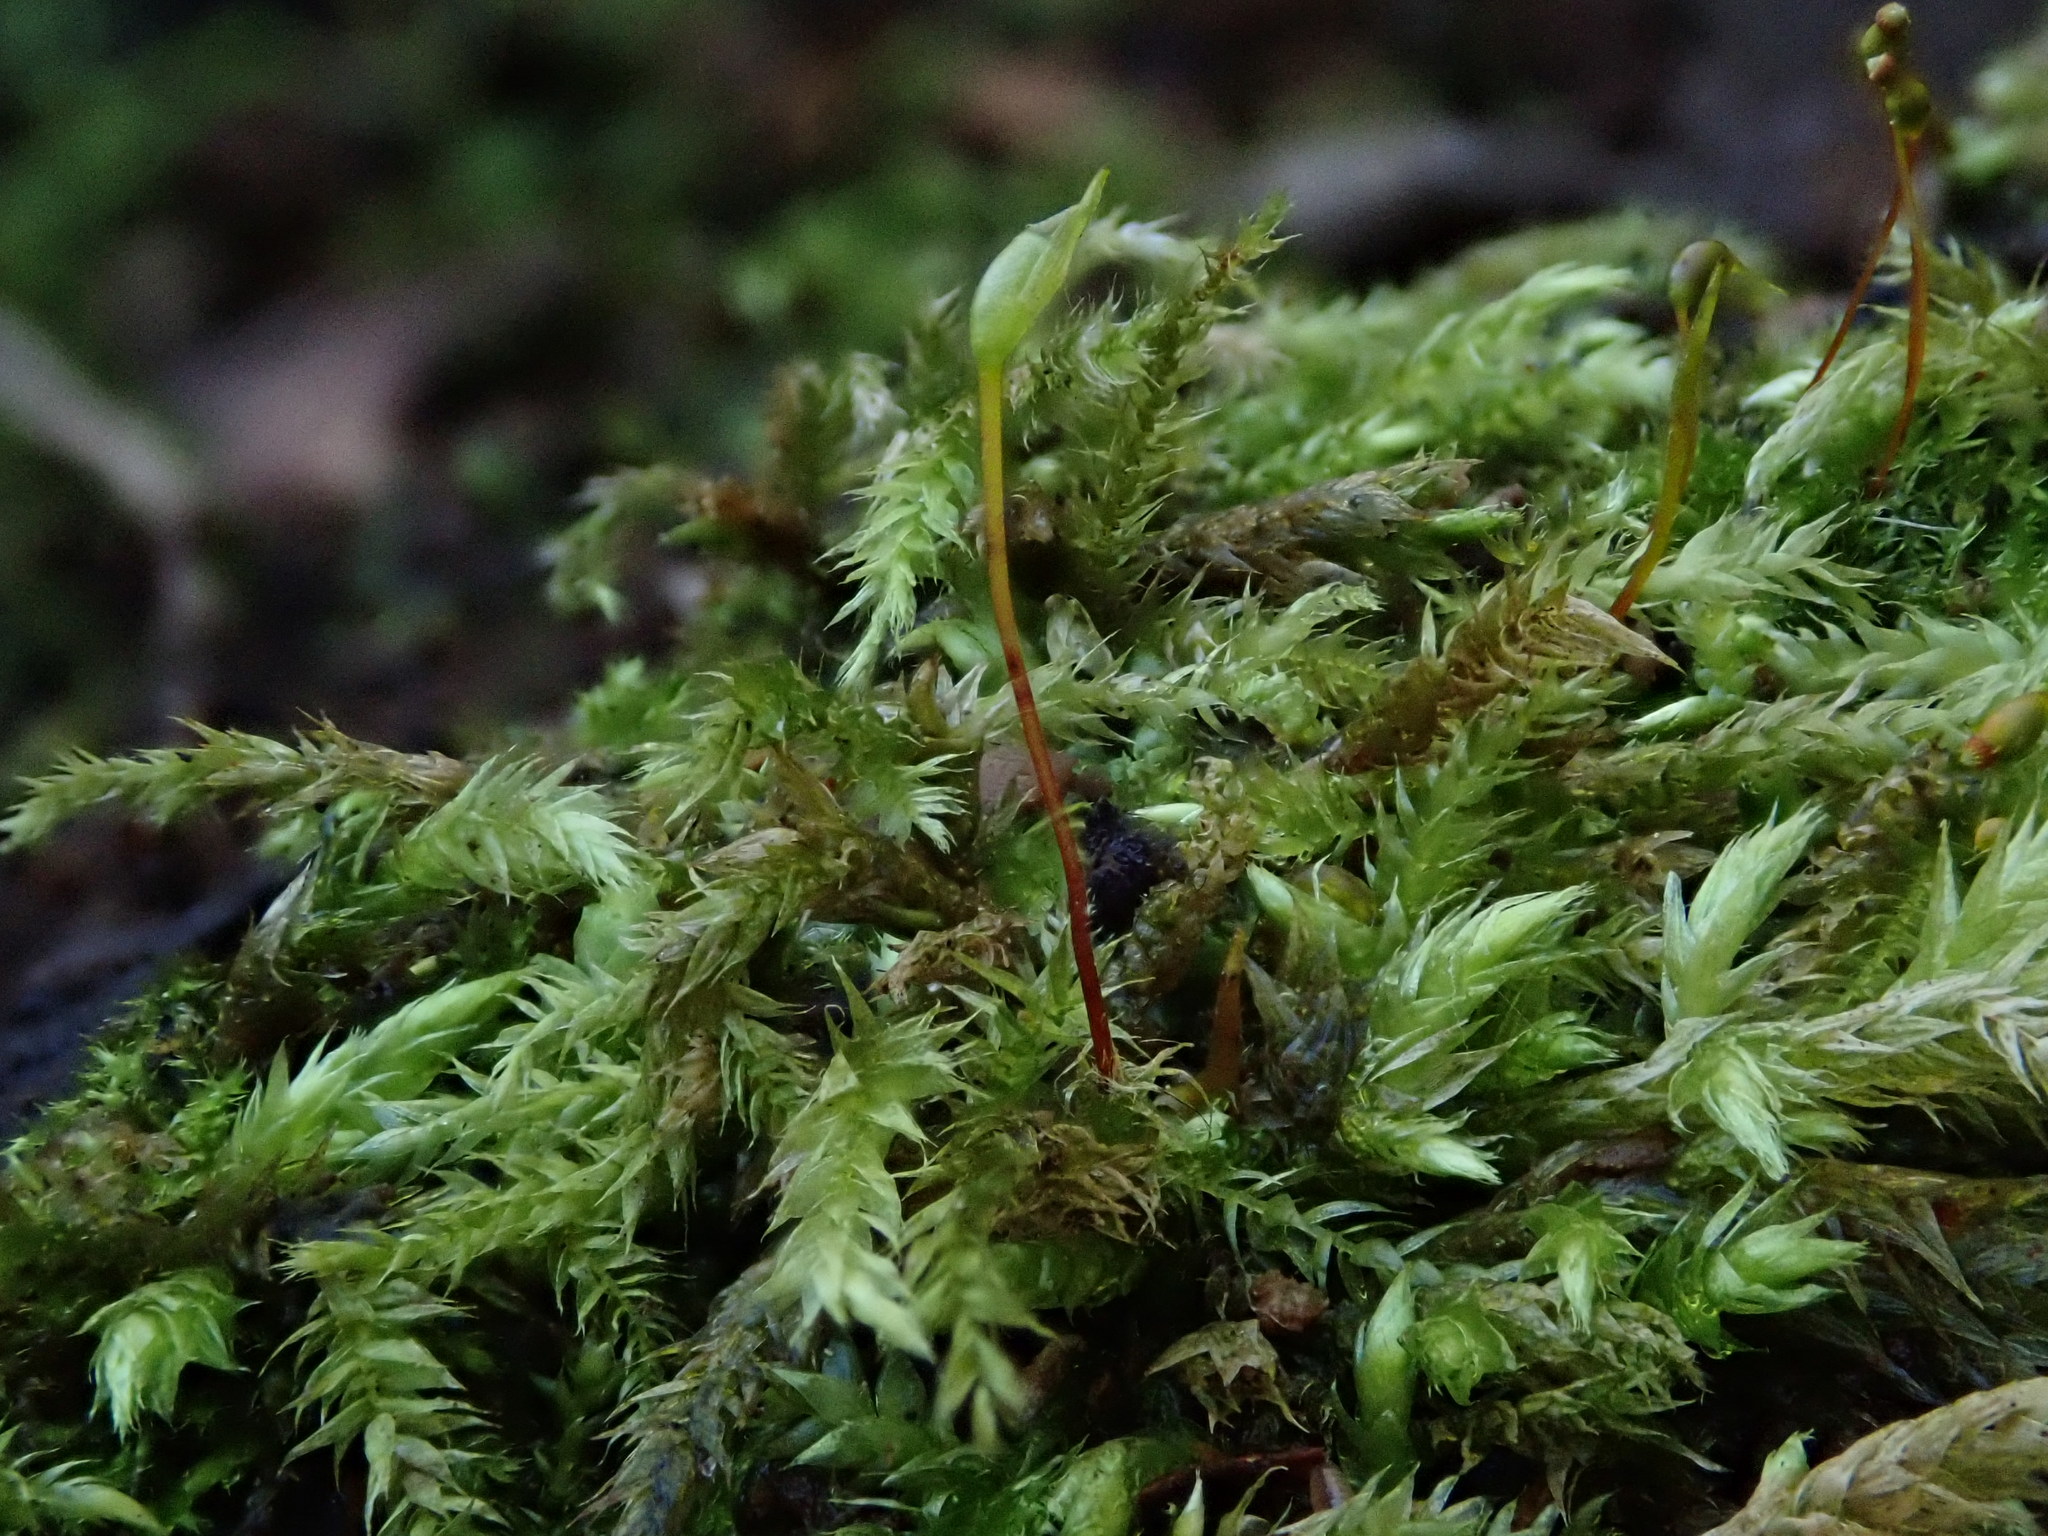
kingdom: Plantae
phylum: Bryophyta
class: Bryopsida
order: Hypnales
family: Brachytheciaceae
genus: Brachythecium
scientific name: Brachythecium rutabulum
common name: Rough-stalked feather-moss
